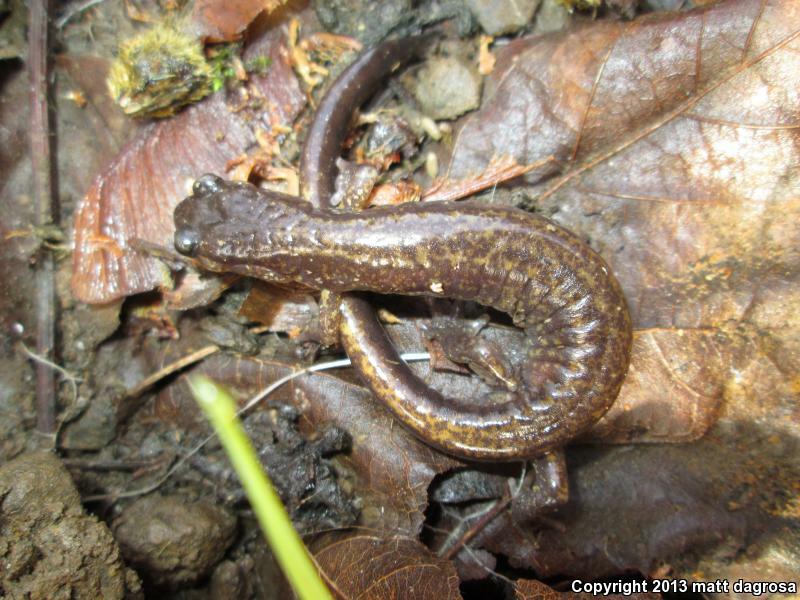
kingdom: Animalia
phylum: Chordata
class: Amphibia
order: Caudata
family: Plethodontidae
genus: Plethodon
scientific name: Plethodon dunni
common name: Dunn's salamander
